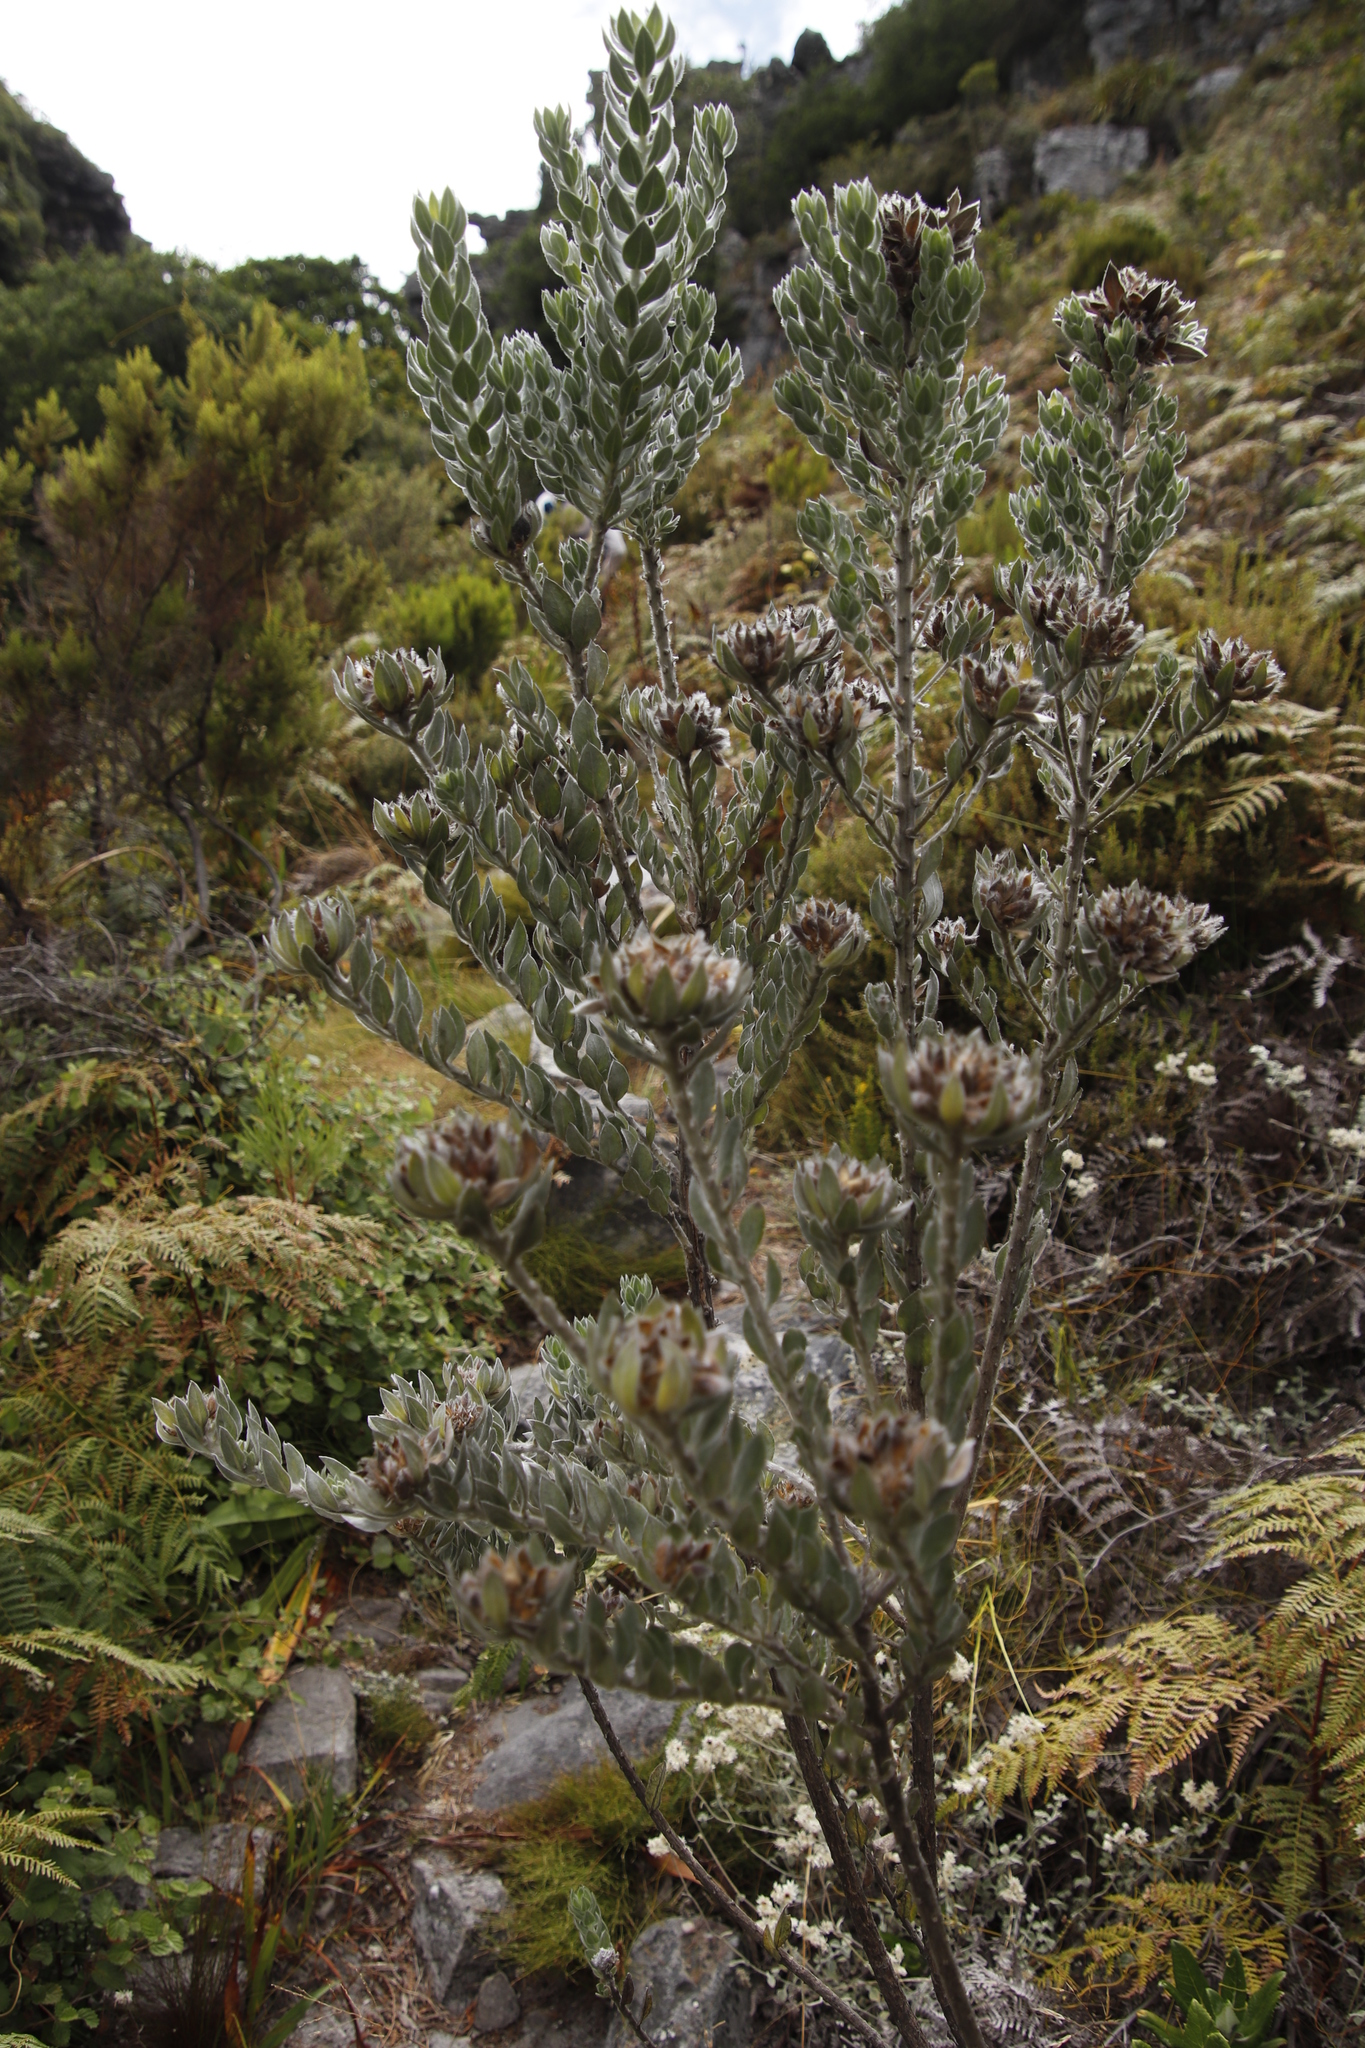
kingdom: Plantae
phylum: Tracheophyta
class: Magnoliopsida
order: Fabales
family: Fabaceae
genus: Xiphotheca
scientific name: Xiphotheca fruticosa
